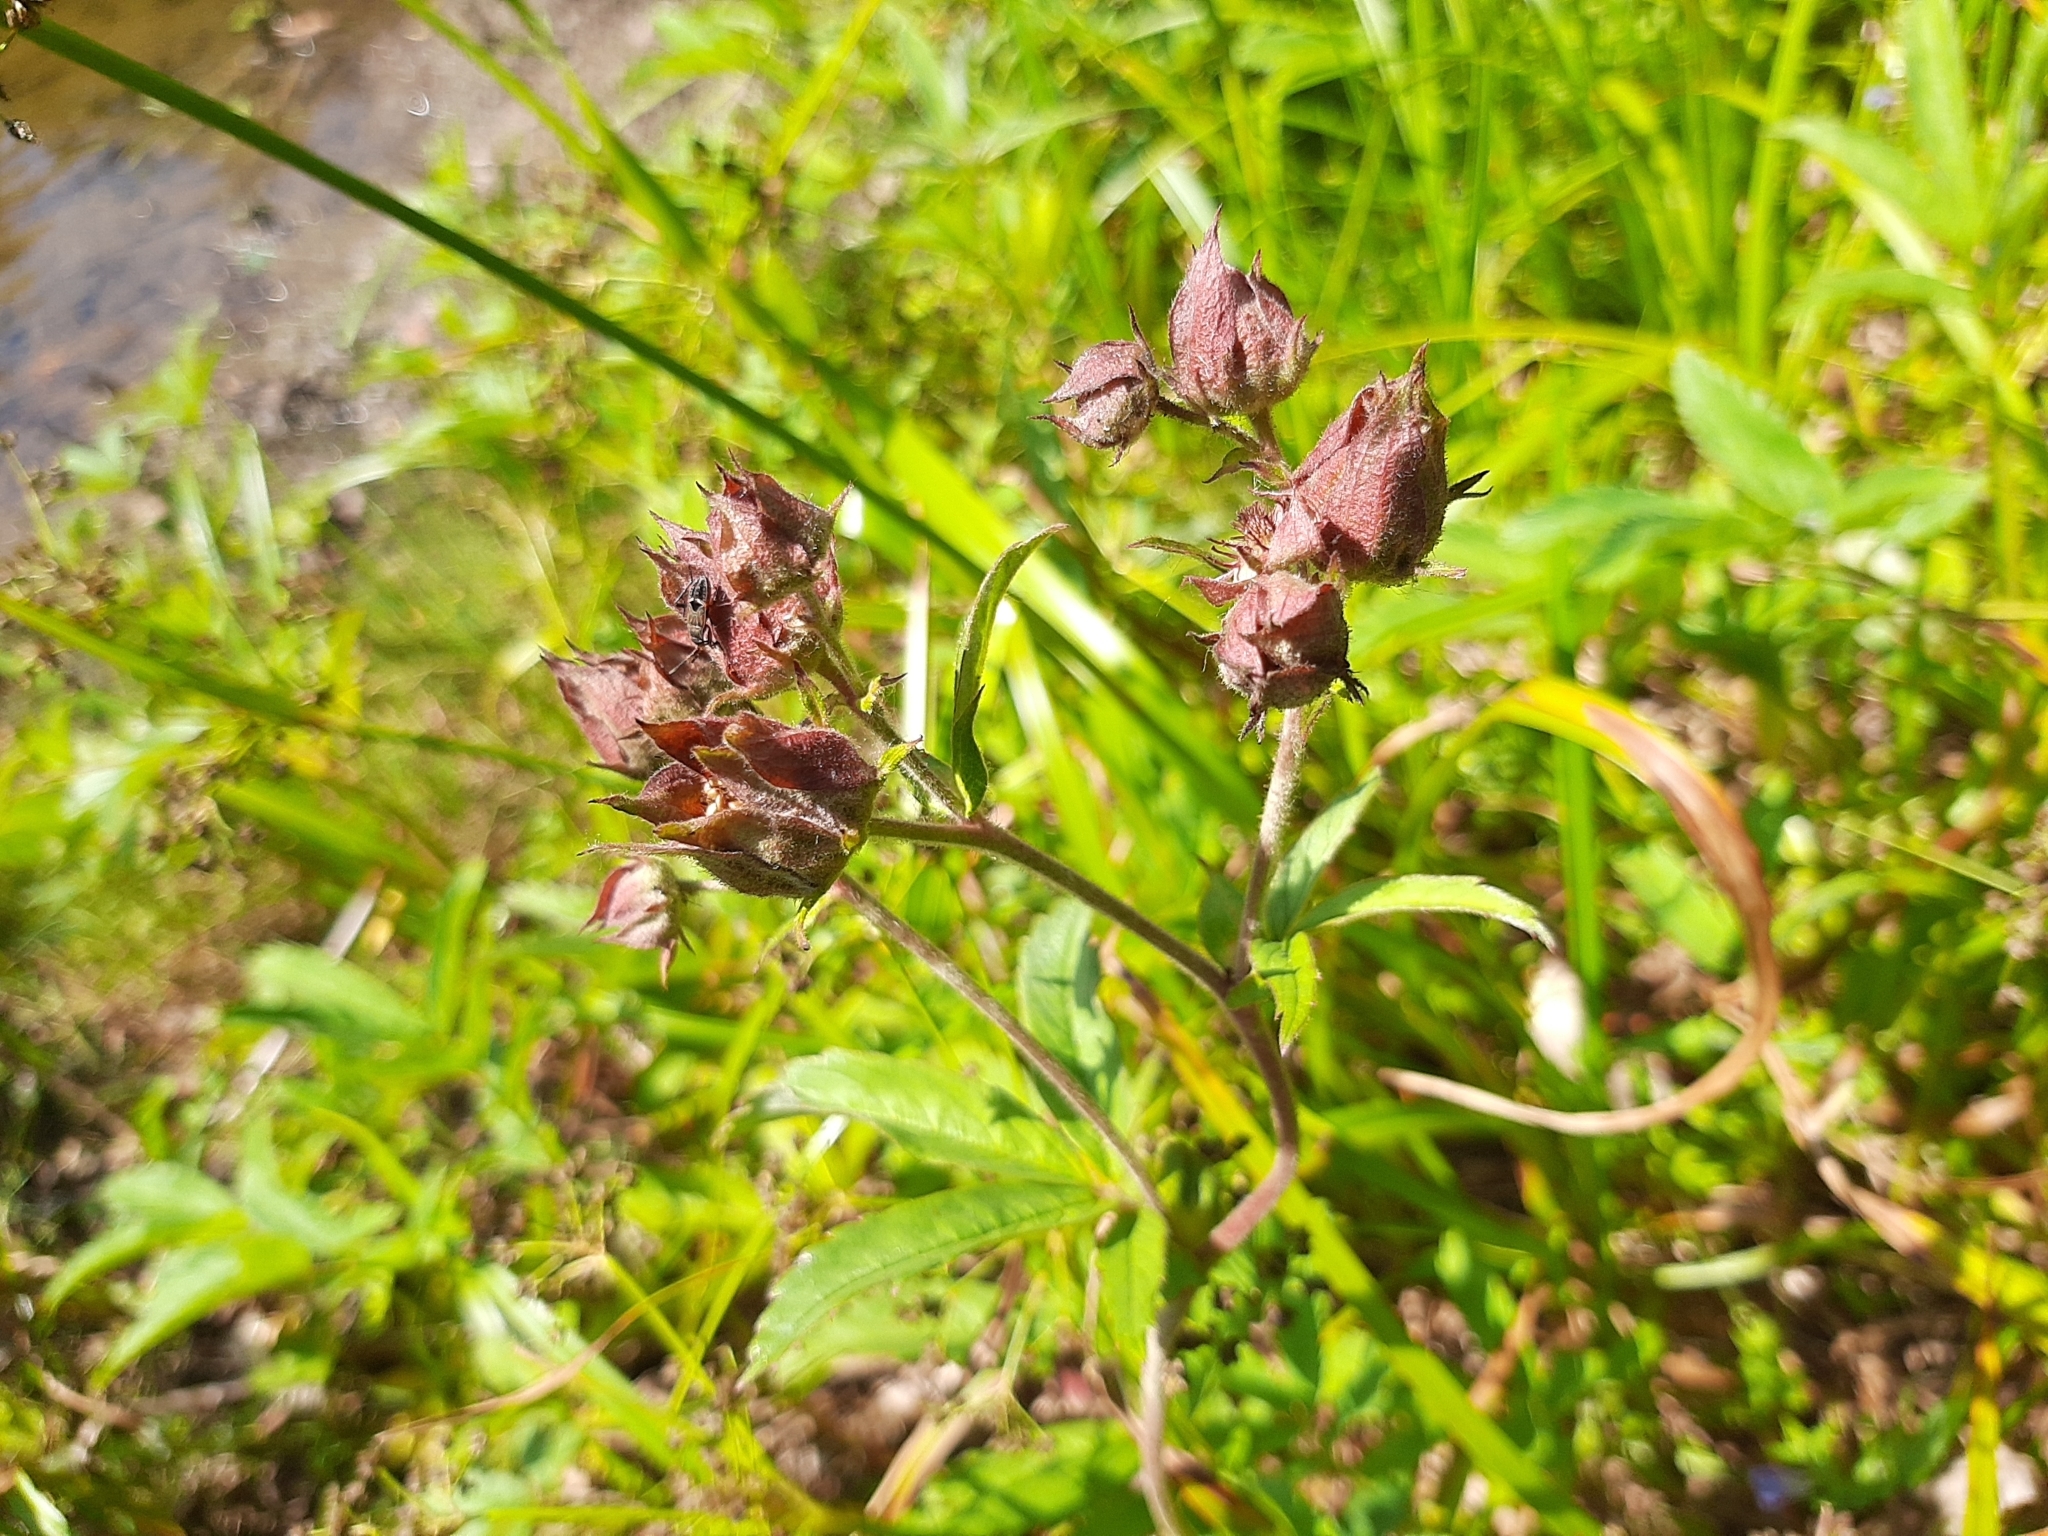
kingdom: Plantae
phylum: Tracheophyta
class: Magnoliopsida
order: Rosales
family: Rosaceae
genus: Comarum
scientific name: Comarum palustre
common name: Marsh cinquefoil
